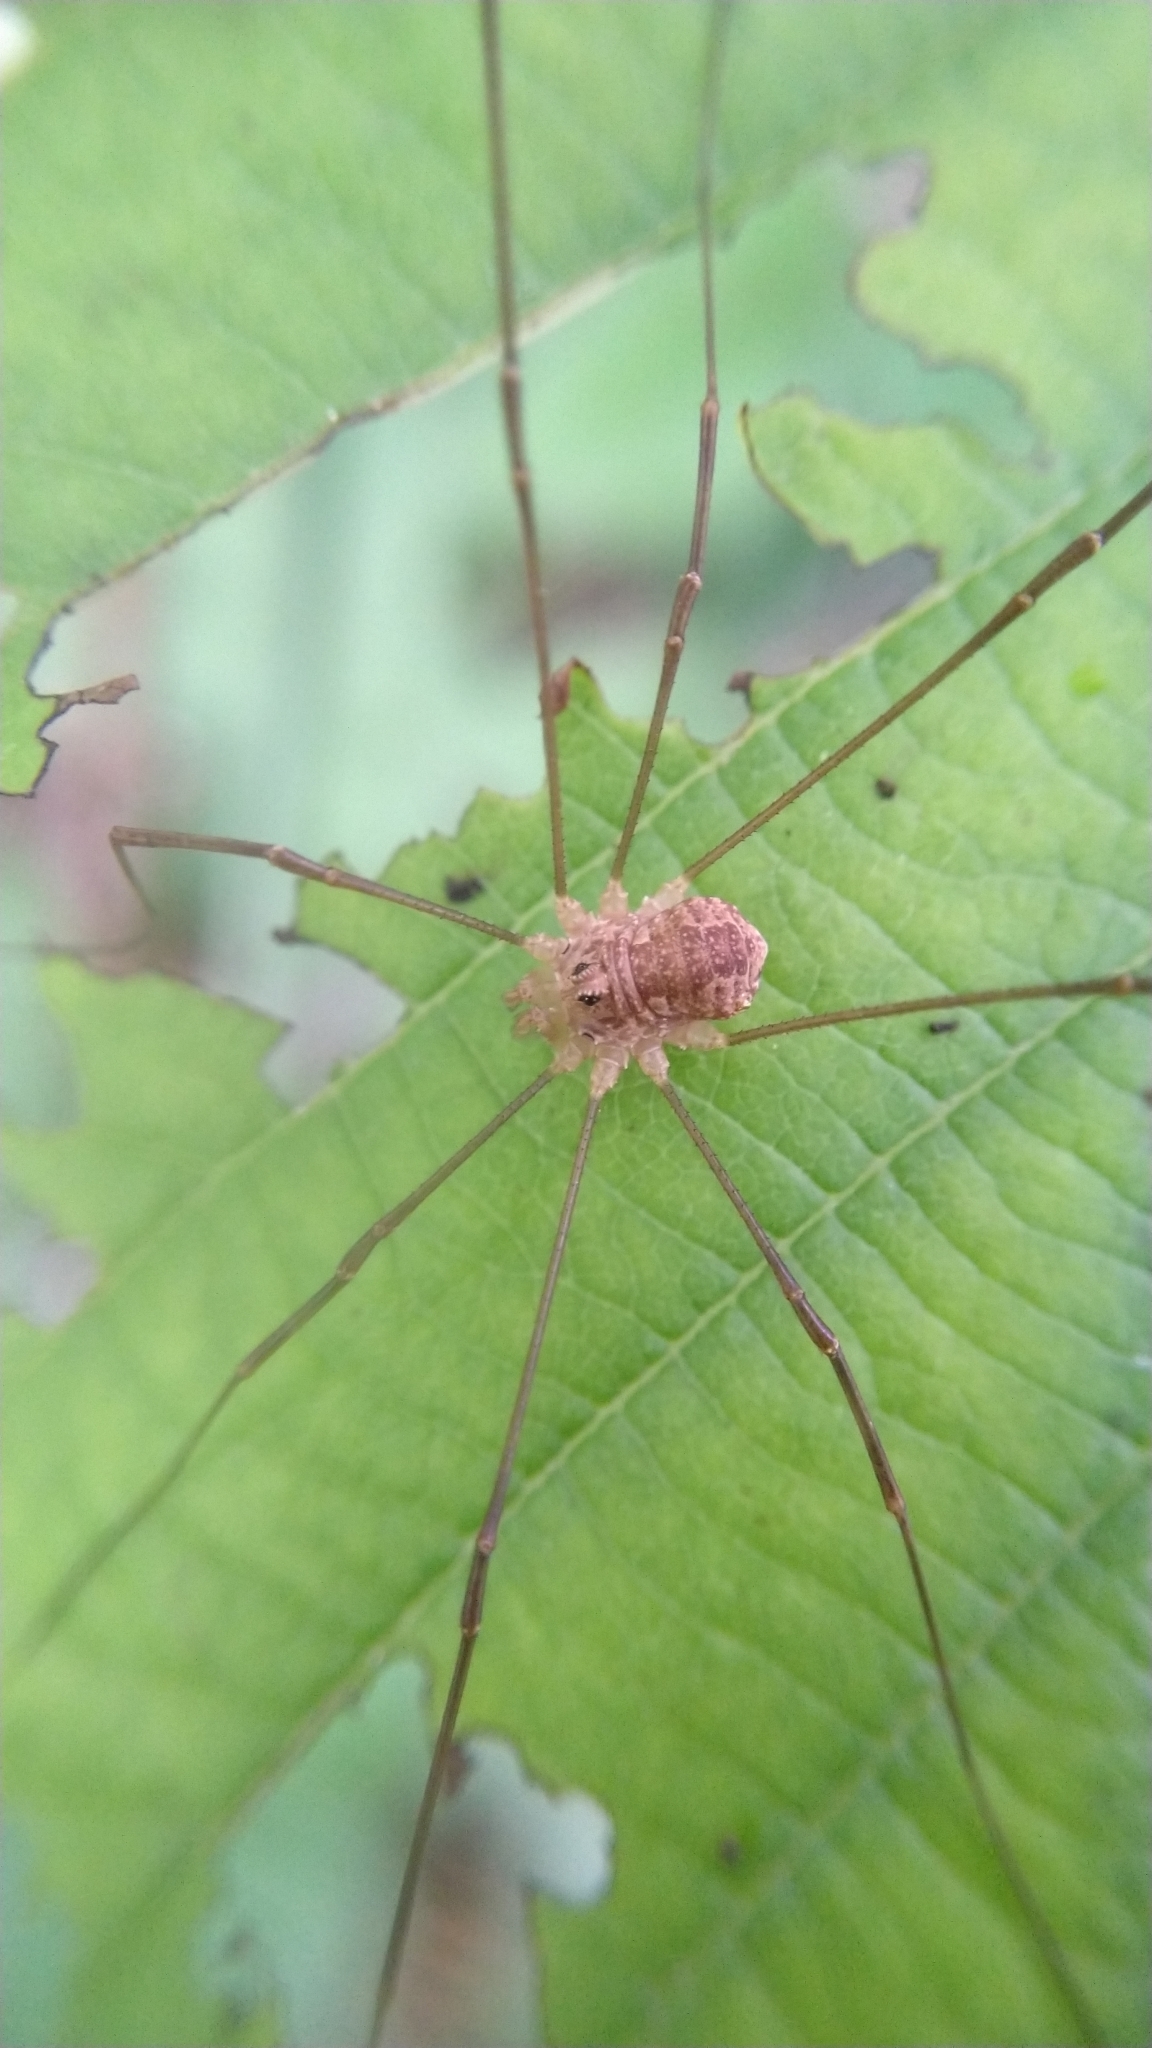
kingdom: Animalia
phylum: Arthropoda
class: Arachnida
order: Opiliones
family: Phalangiidae
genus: Rilaena
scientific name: Rilaena triangularis
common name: Spring harvestman
